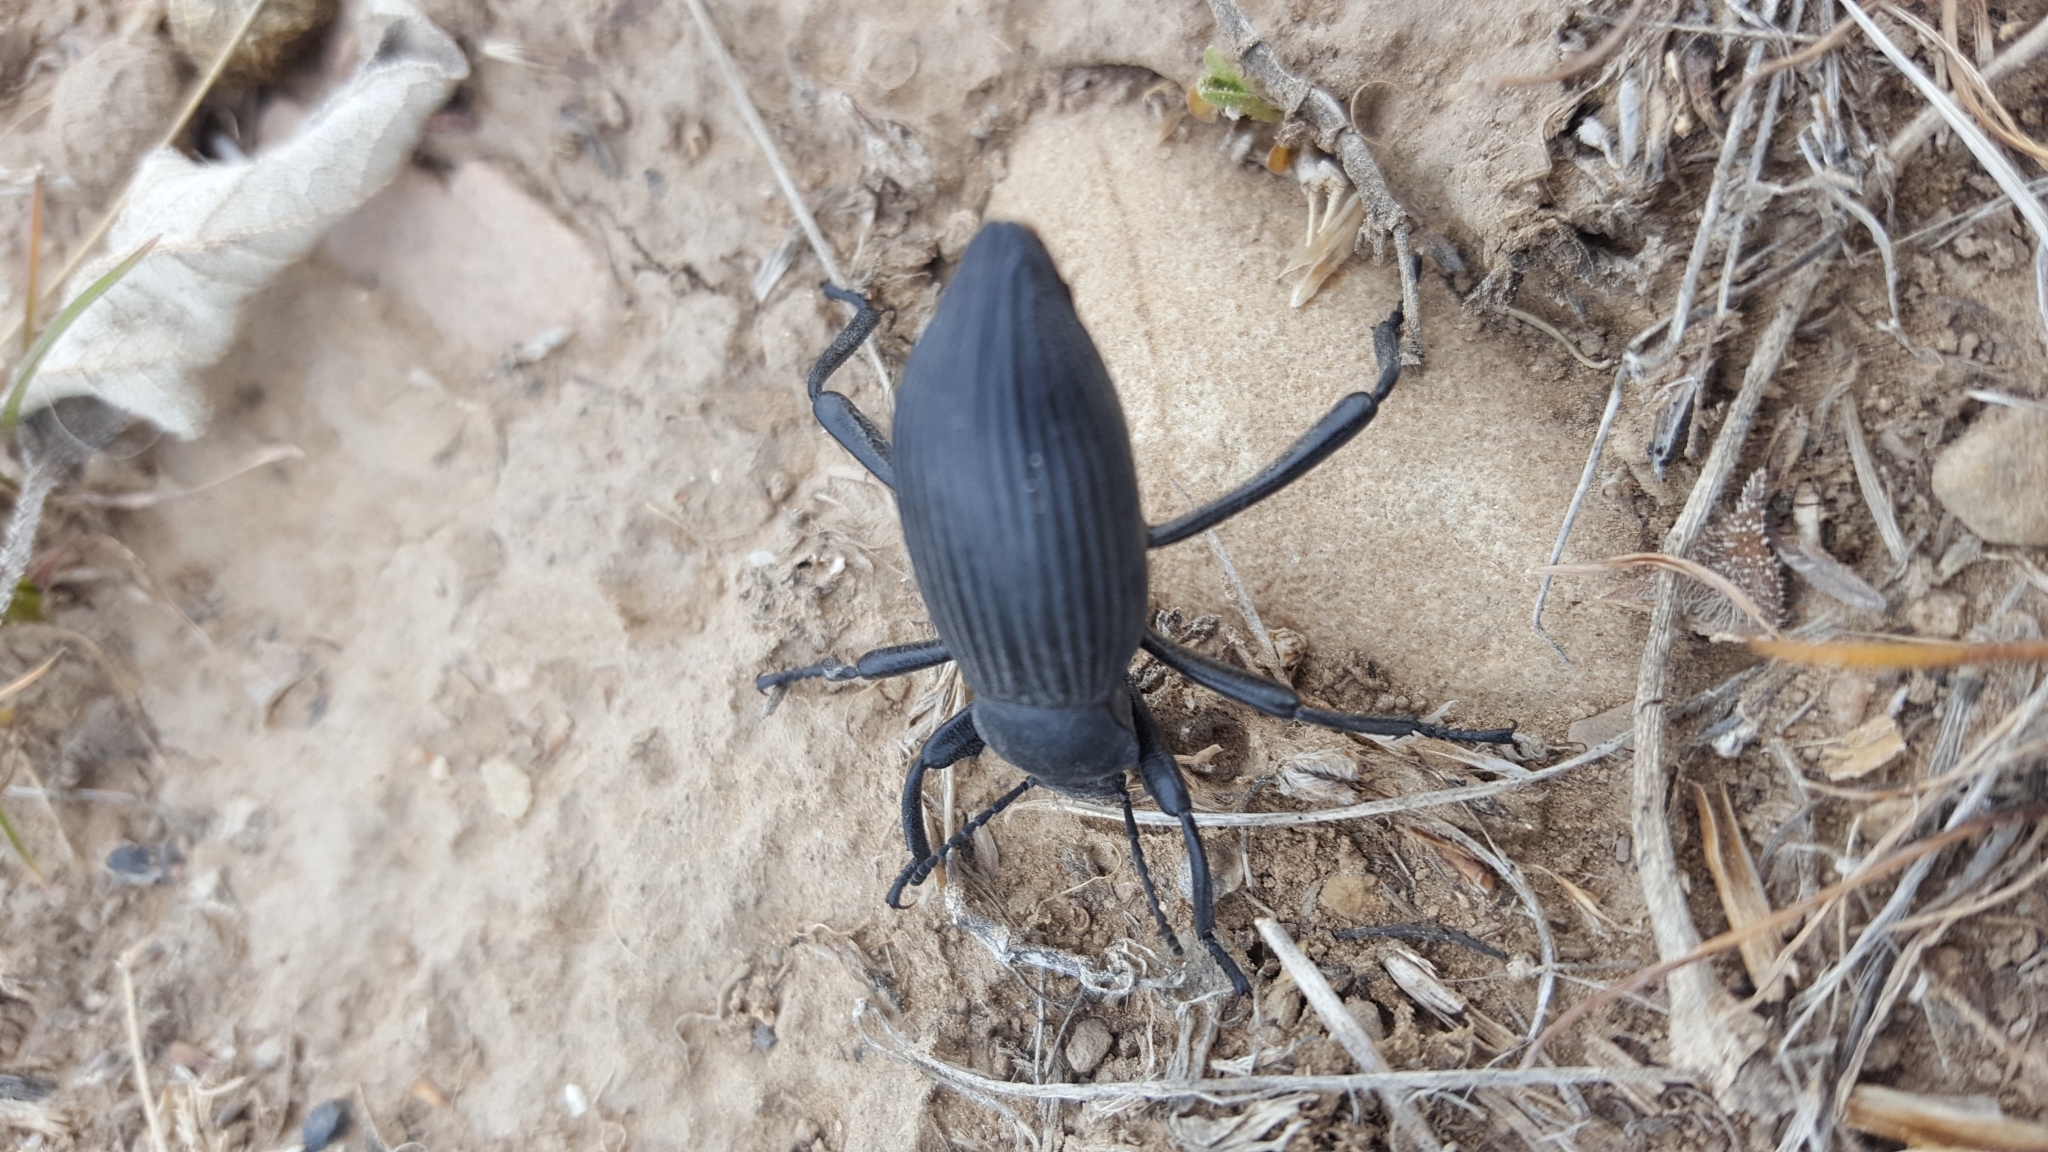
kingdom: Animalia
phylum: Arthropoda
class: Insecta
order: Coleoptera
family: Tenebrionidae
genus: Eleodes
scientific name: Eleodes hispilabris
